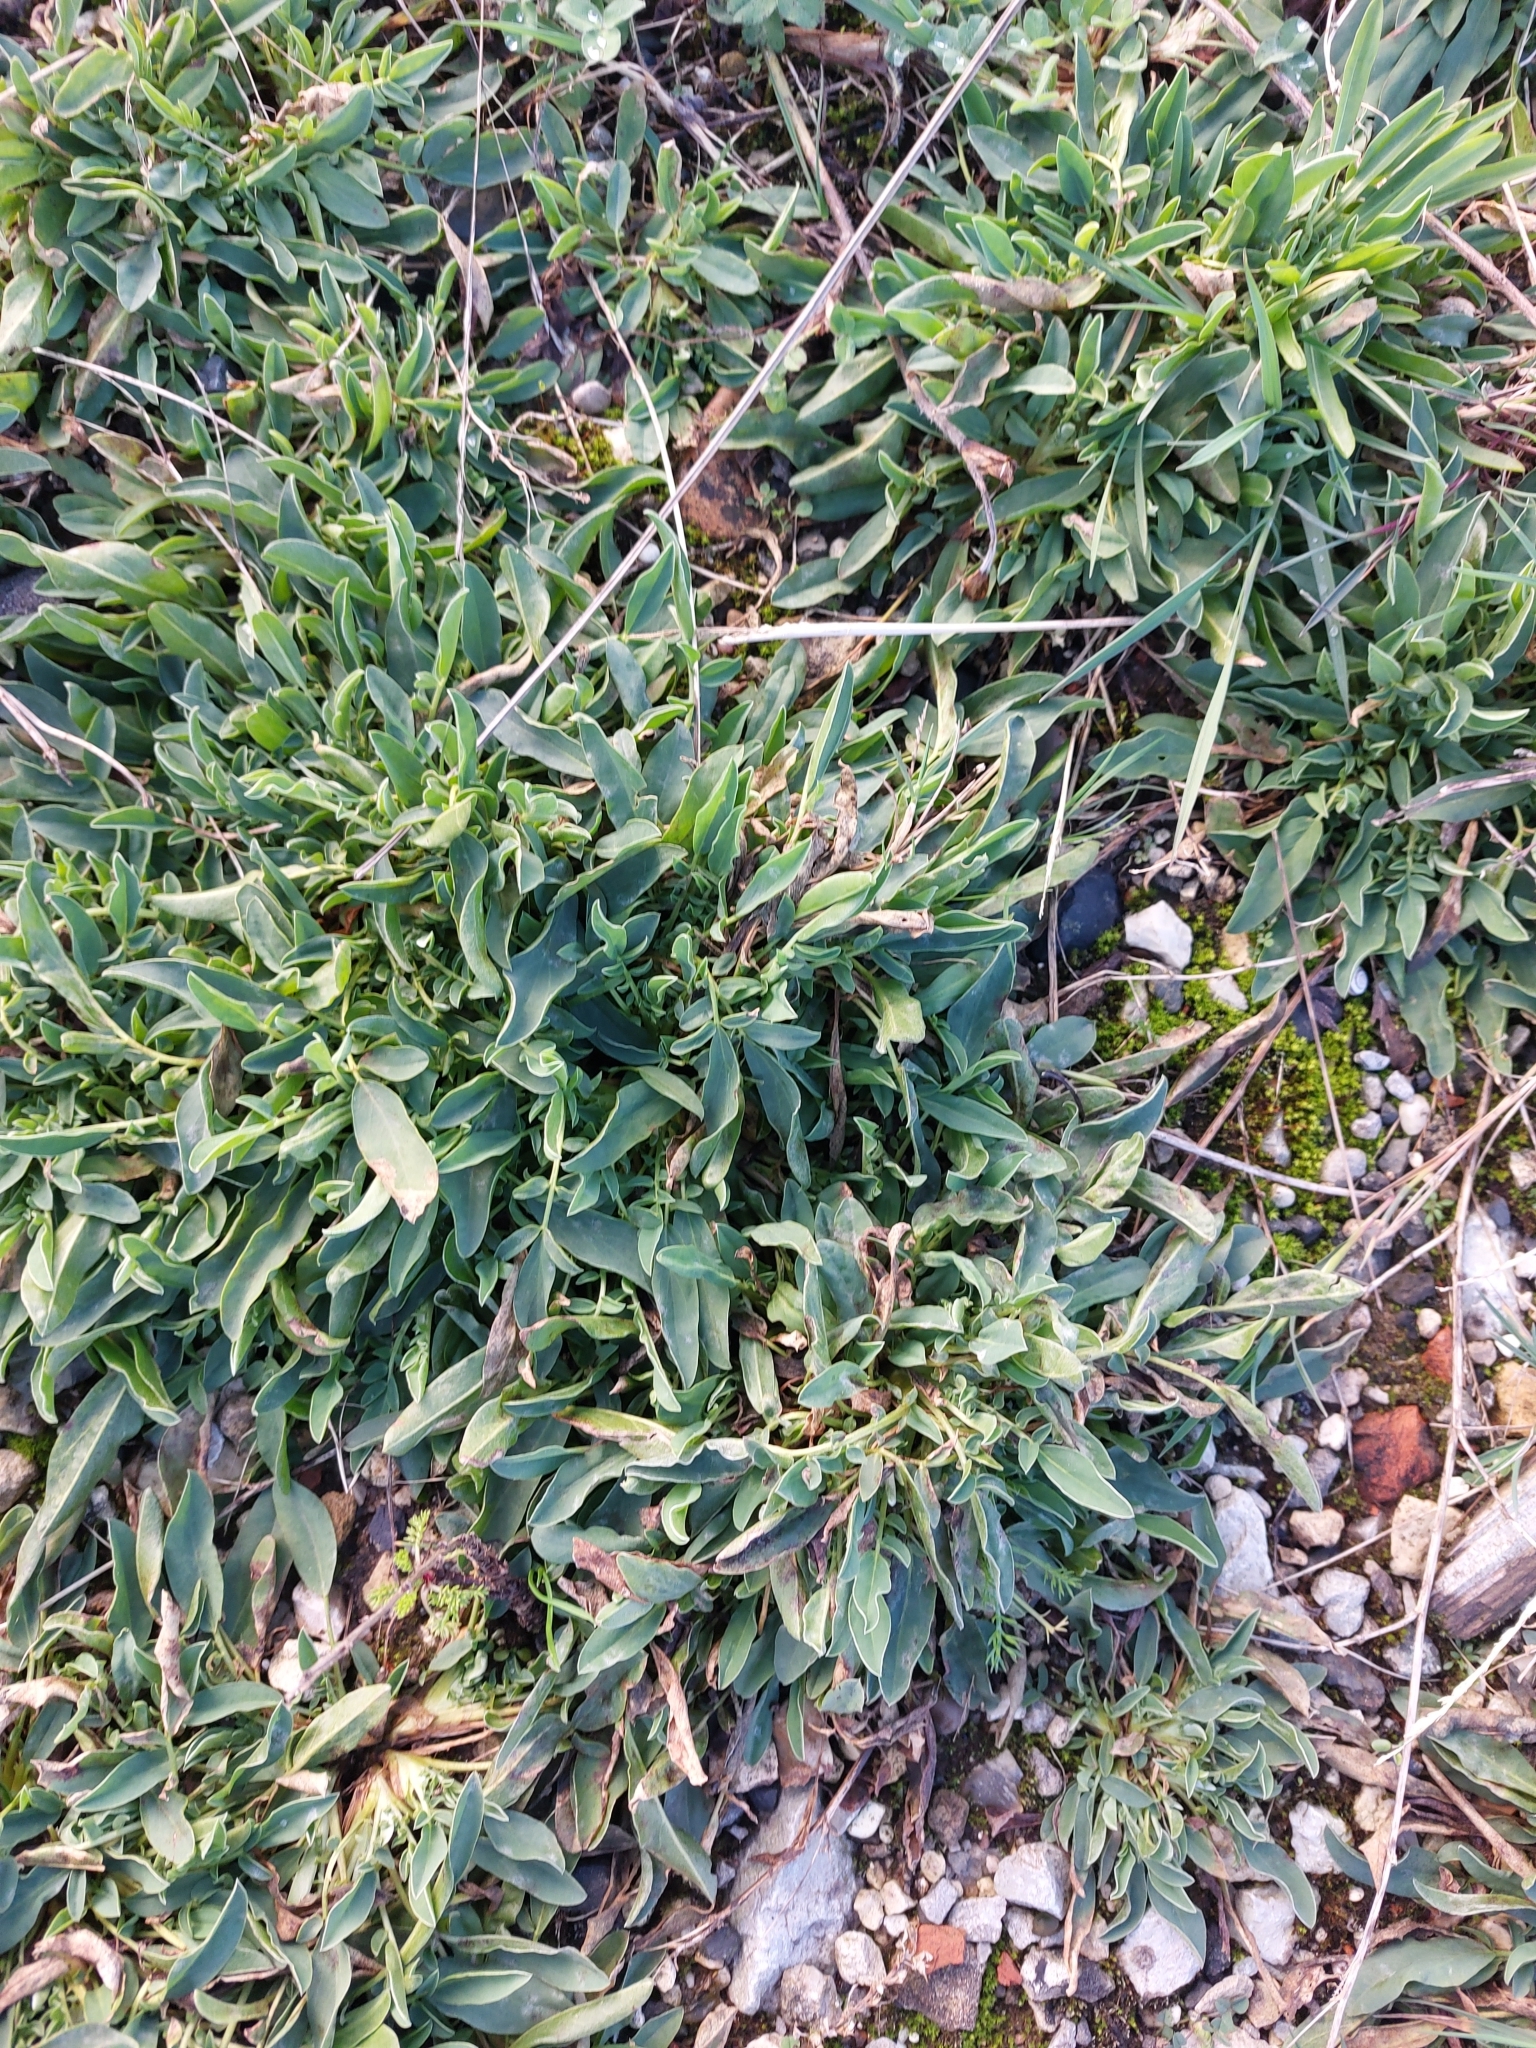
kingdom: Plantae
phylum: Tracheophyta
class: Magnoliopsida
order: Fabales
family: Fabaceae
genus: Anthyllis
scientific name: Anthyllis vulneraria
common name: Kidney vetch
